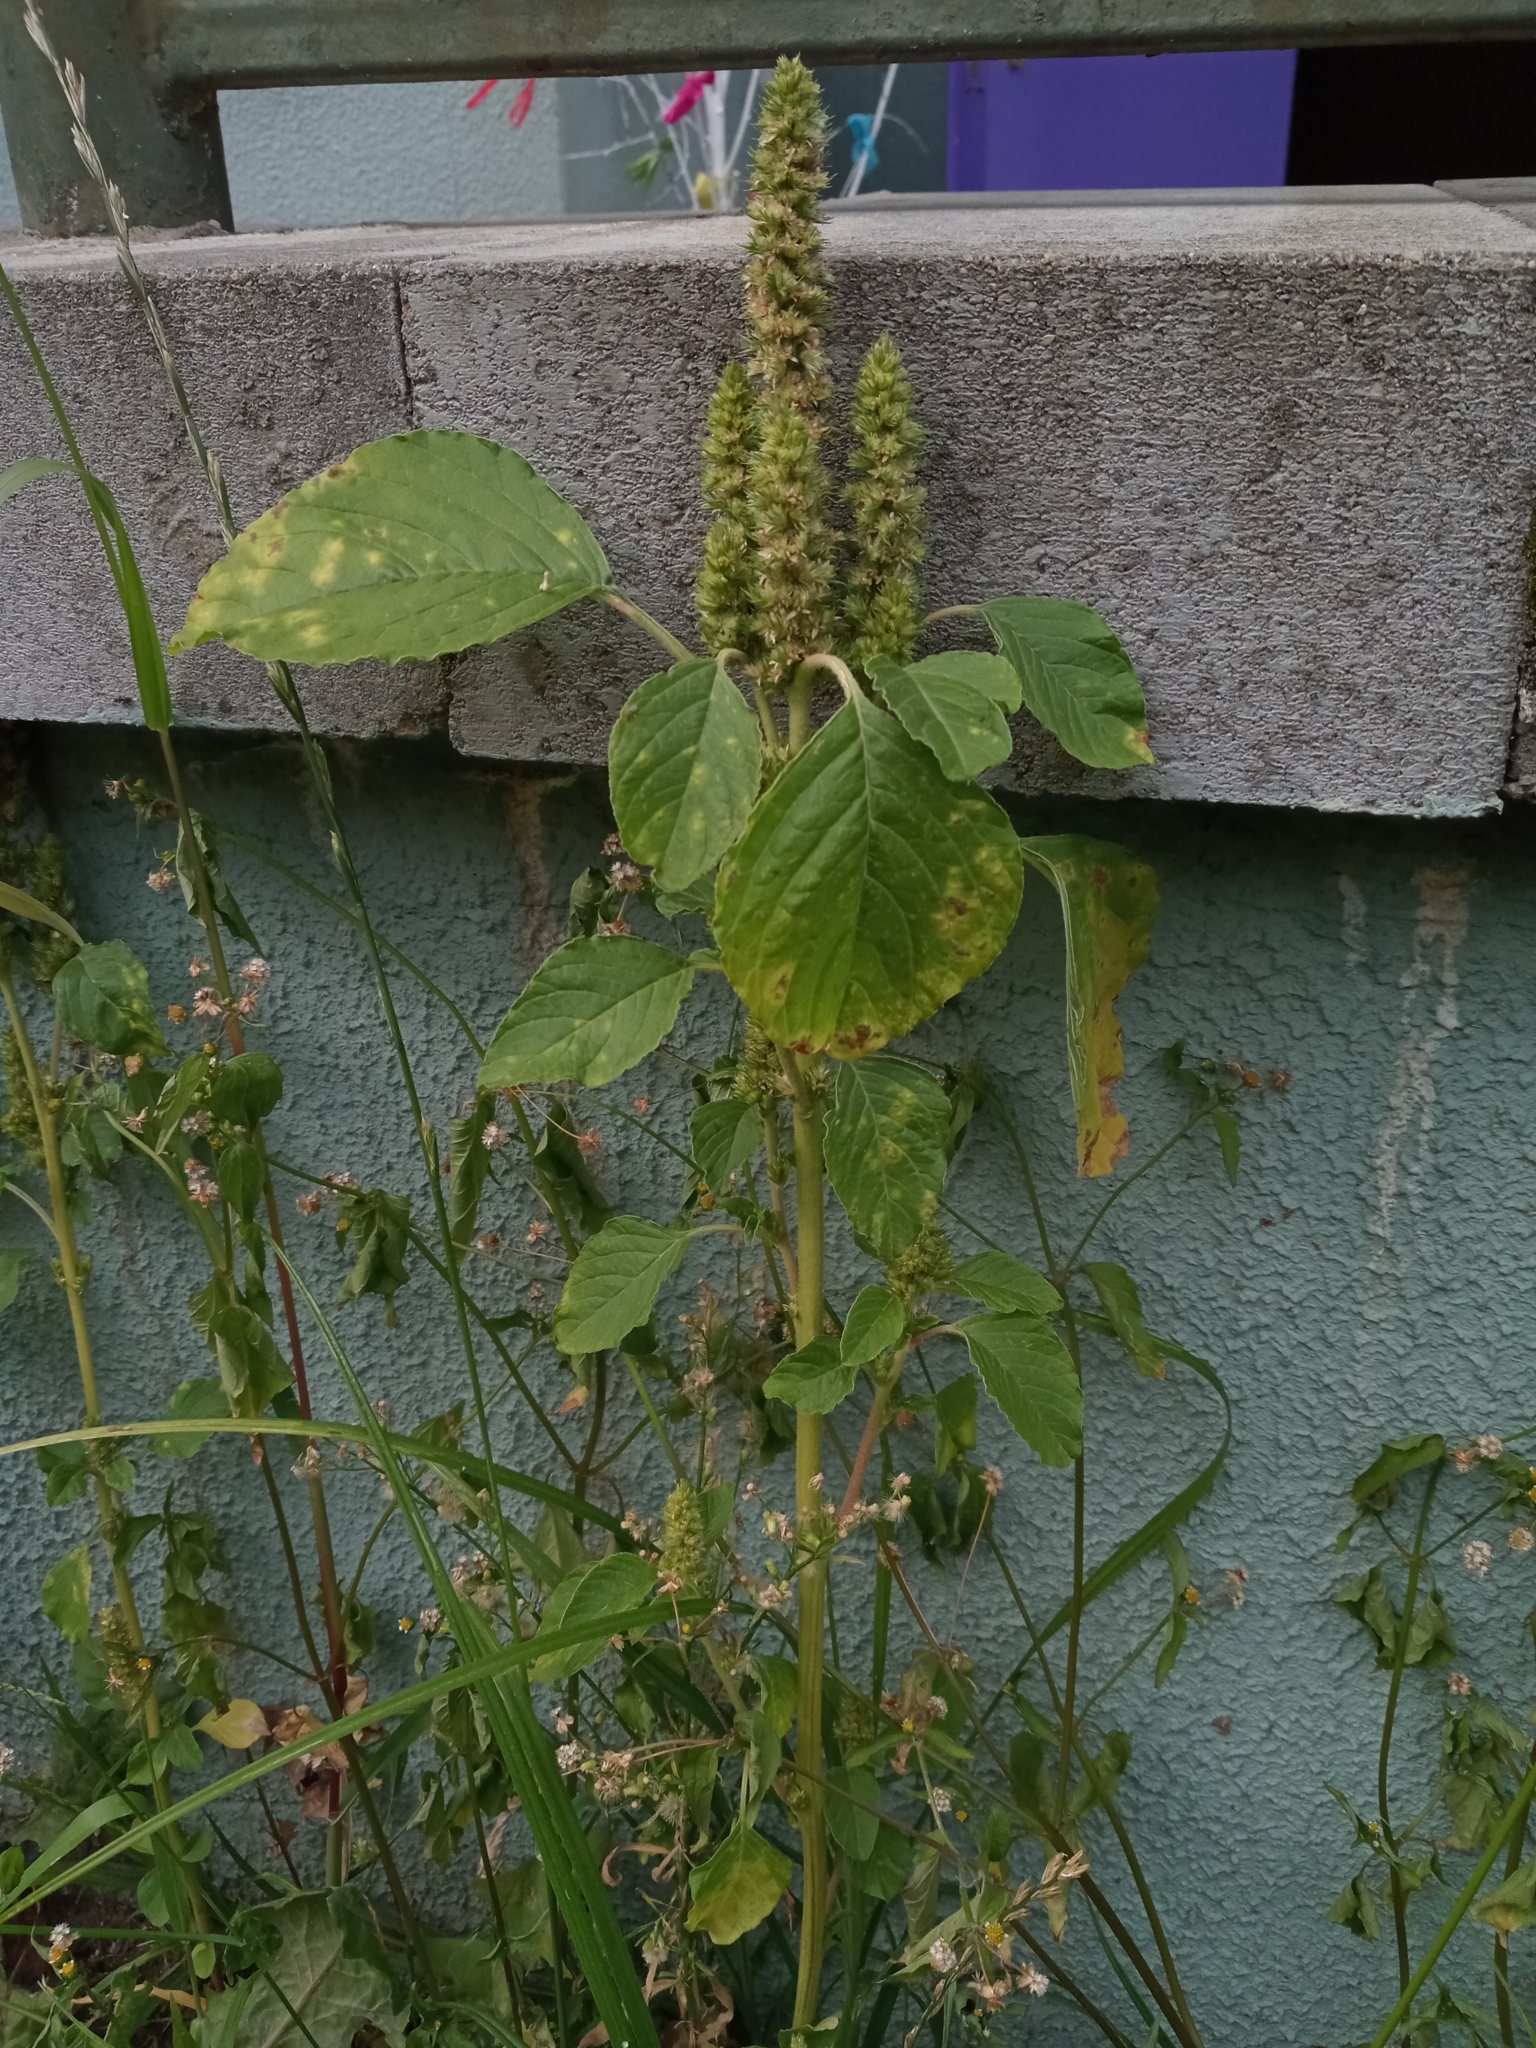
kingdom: Plantae
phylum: Tracheophyta
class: Magnoliopsida
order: Caryophyllales
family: Amaranthaceae
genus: Amaranthus
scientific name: Amaranthus retroflexus
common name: Redroot amaranth
